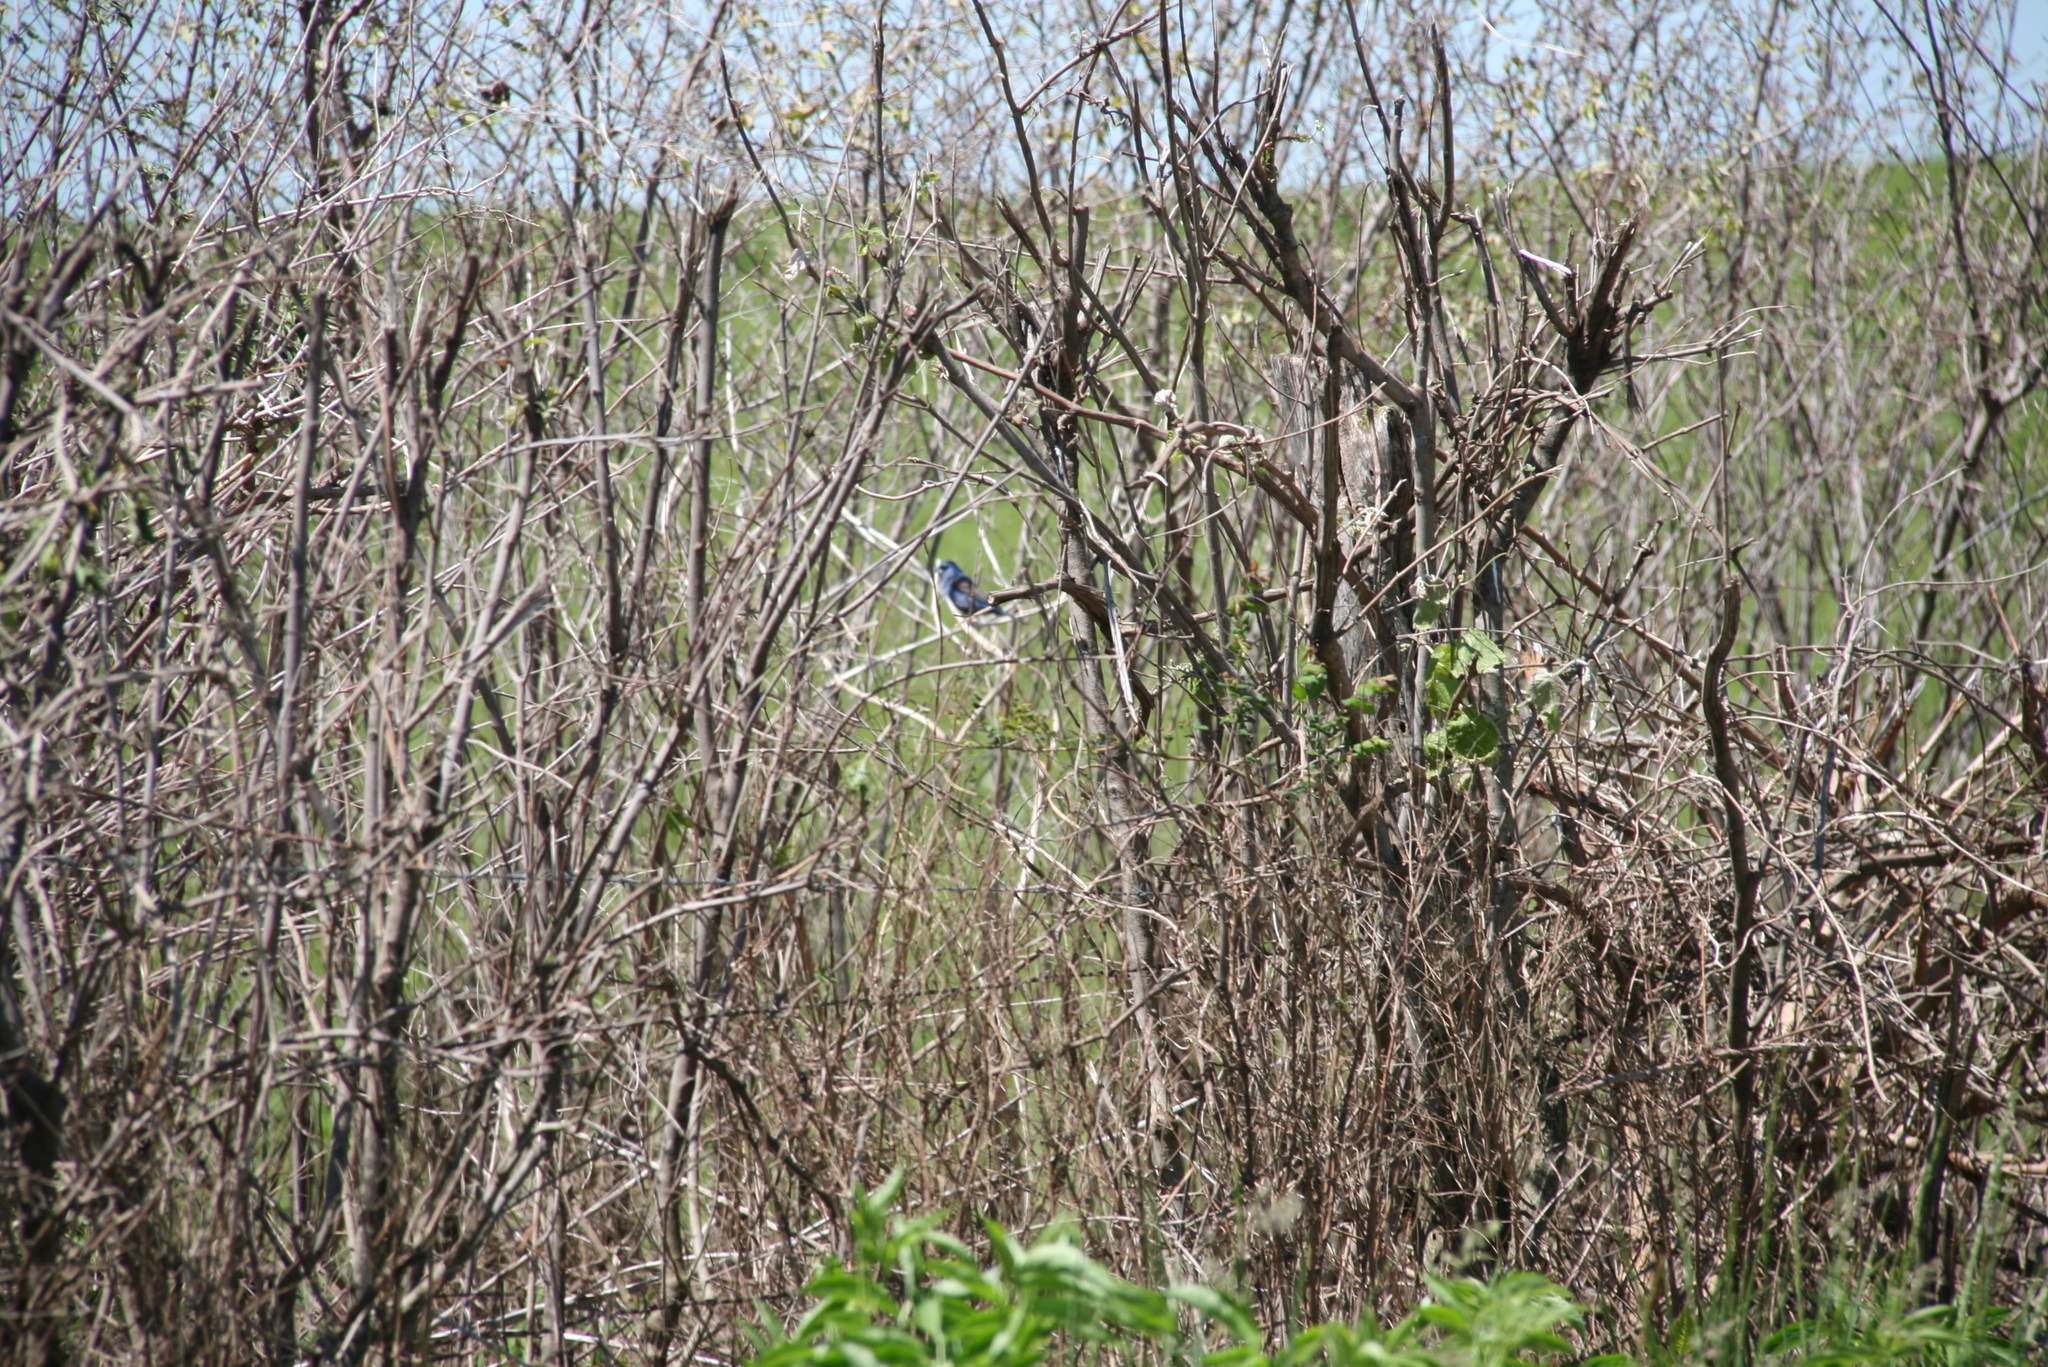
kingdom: Animalia
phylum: Chordata
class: Aves
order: Passeriformes
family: Cardinalidae
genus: Passerina
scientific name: Passerina caerulea
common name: Blue grosbeak
